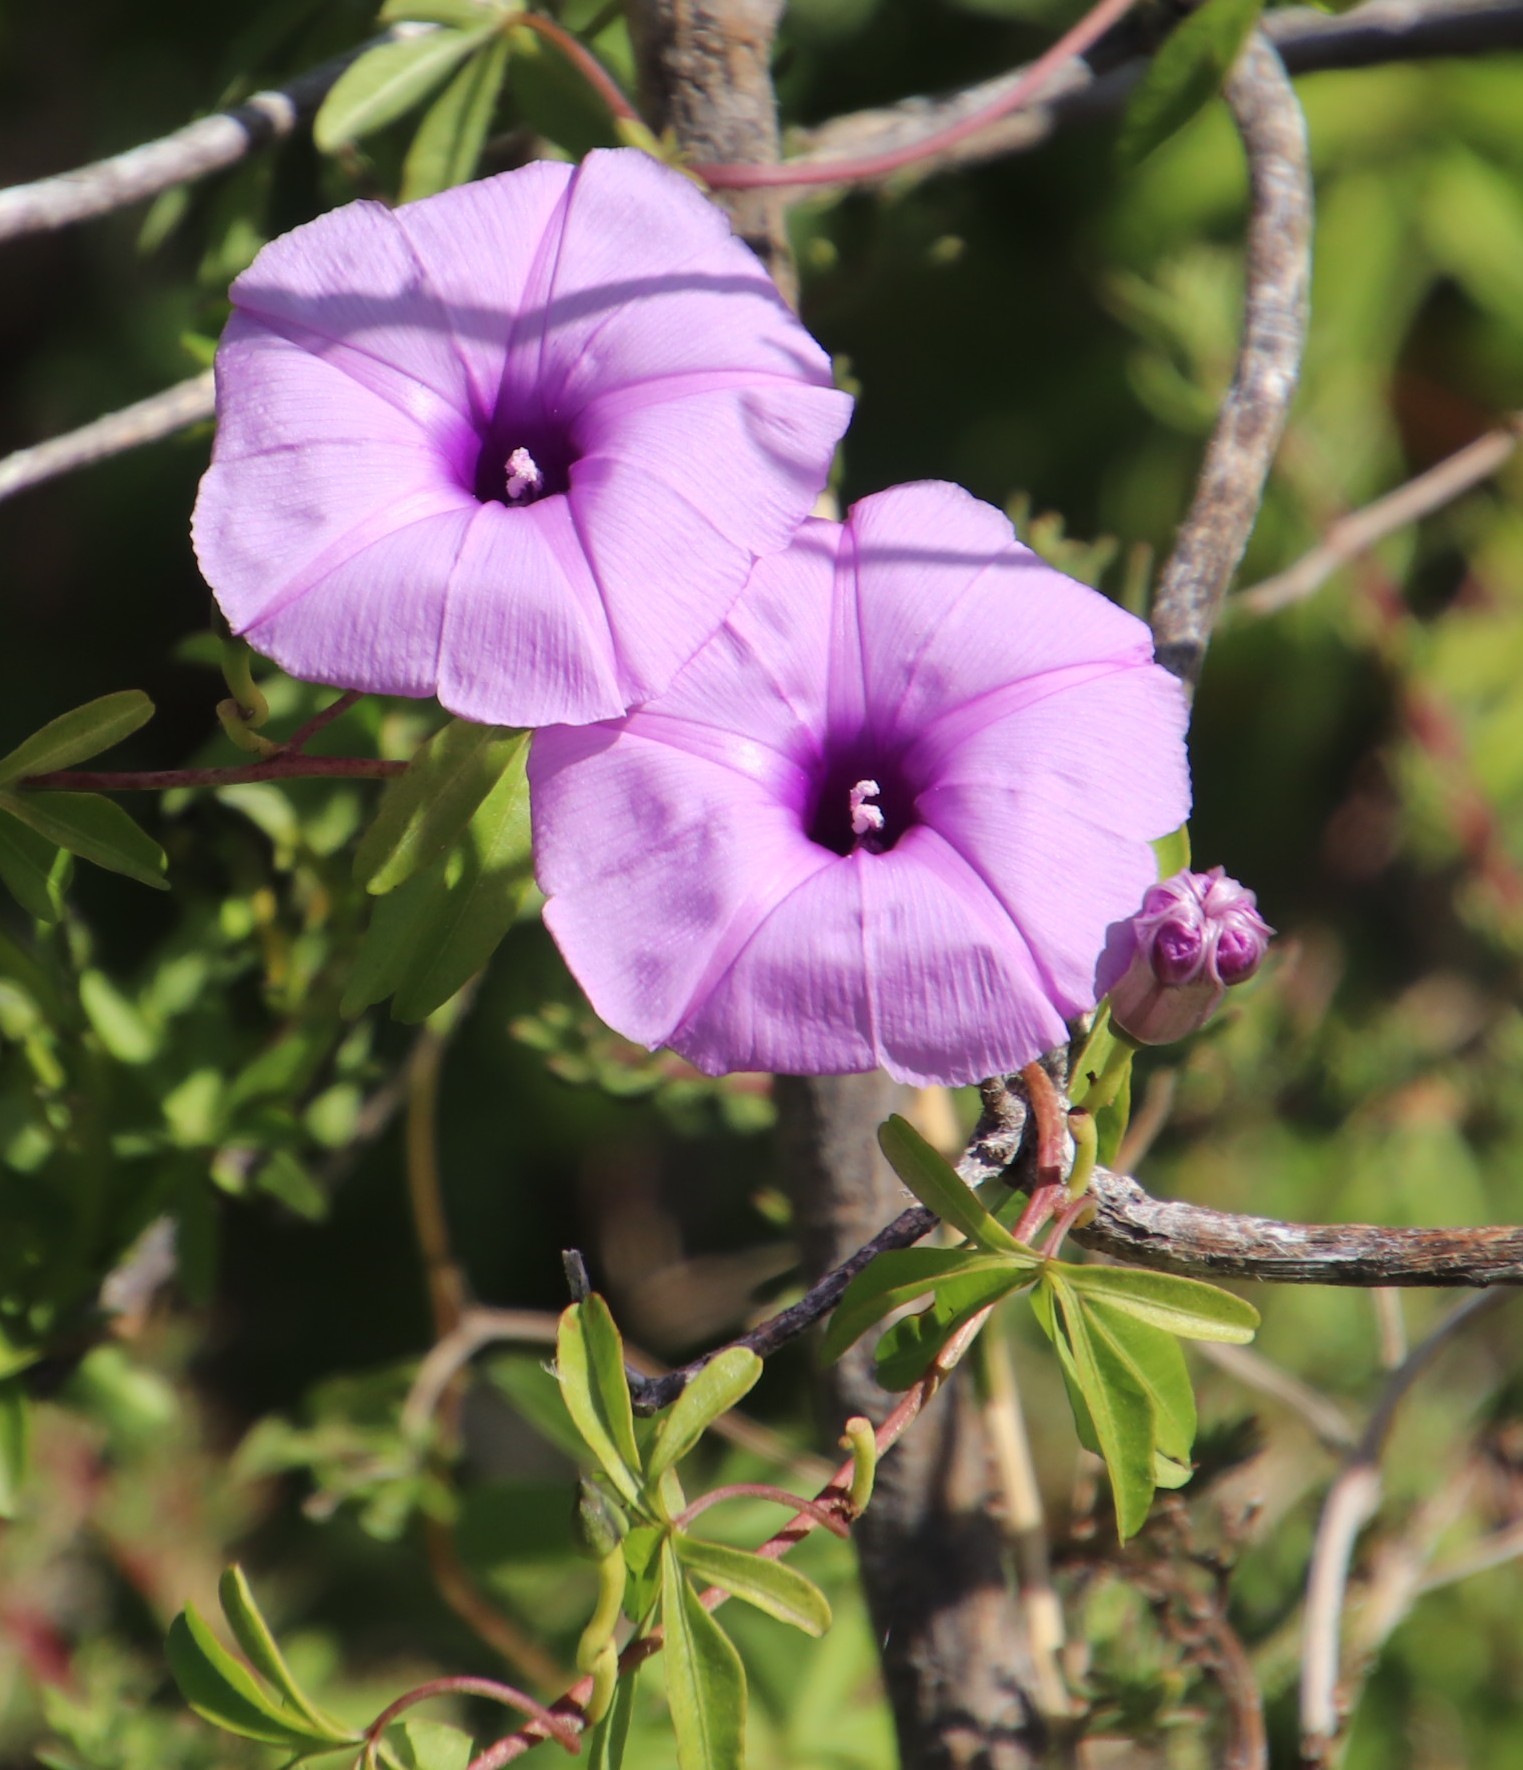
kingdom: Plantae
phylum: Tracheophyta
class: Magnoliopsida
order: Solanales
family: Convolvulaceae
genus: Ipomoea
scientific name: Ipomoea cairica
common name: Mile a minute vine
